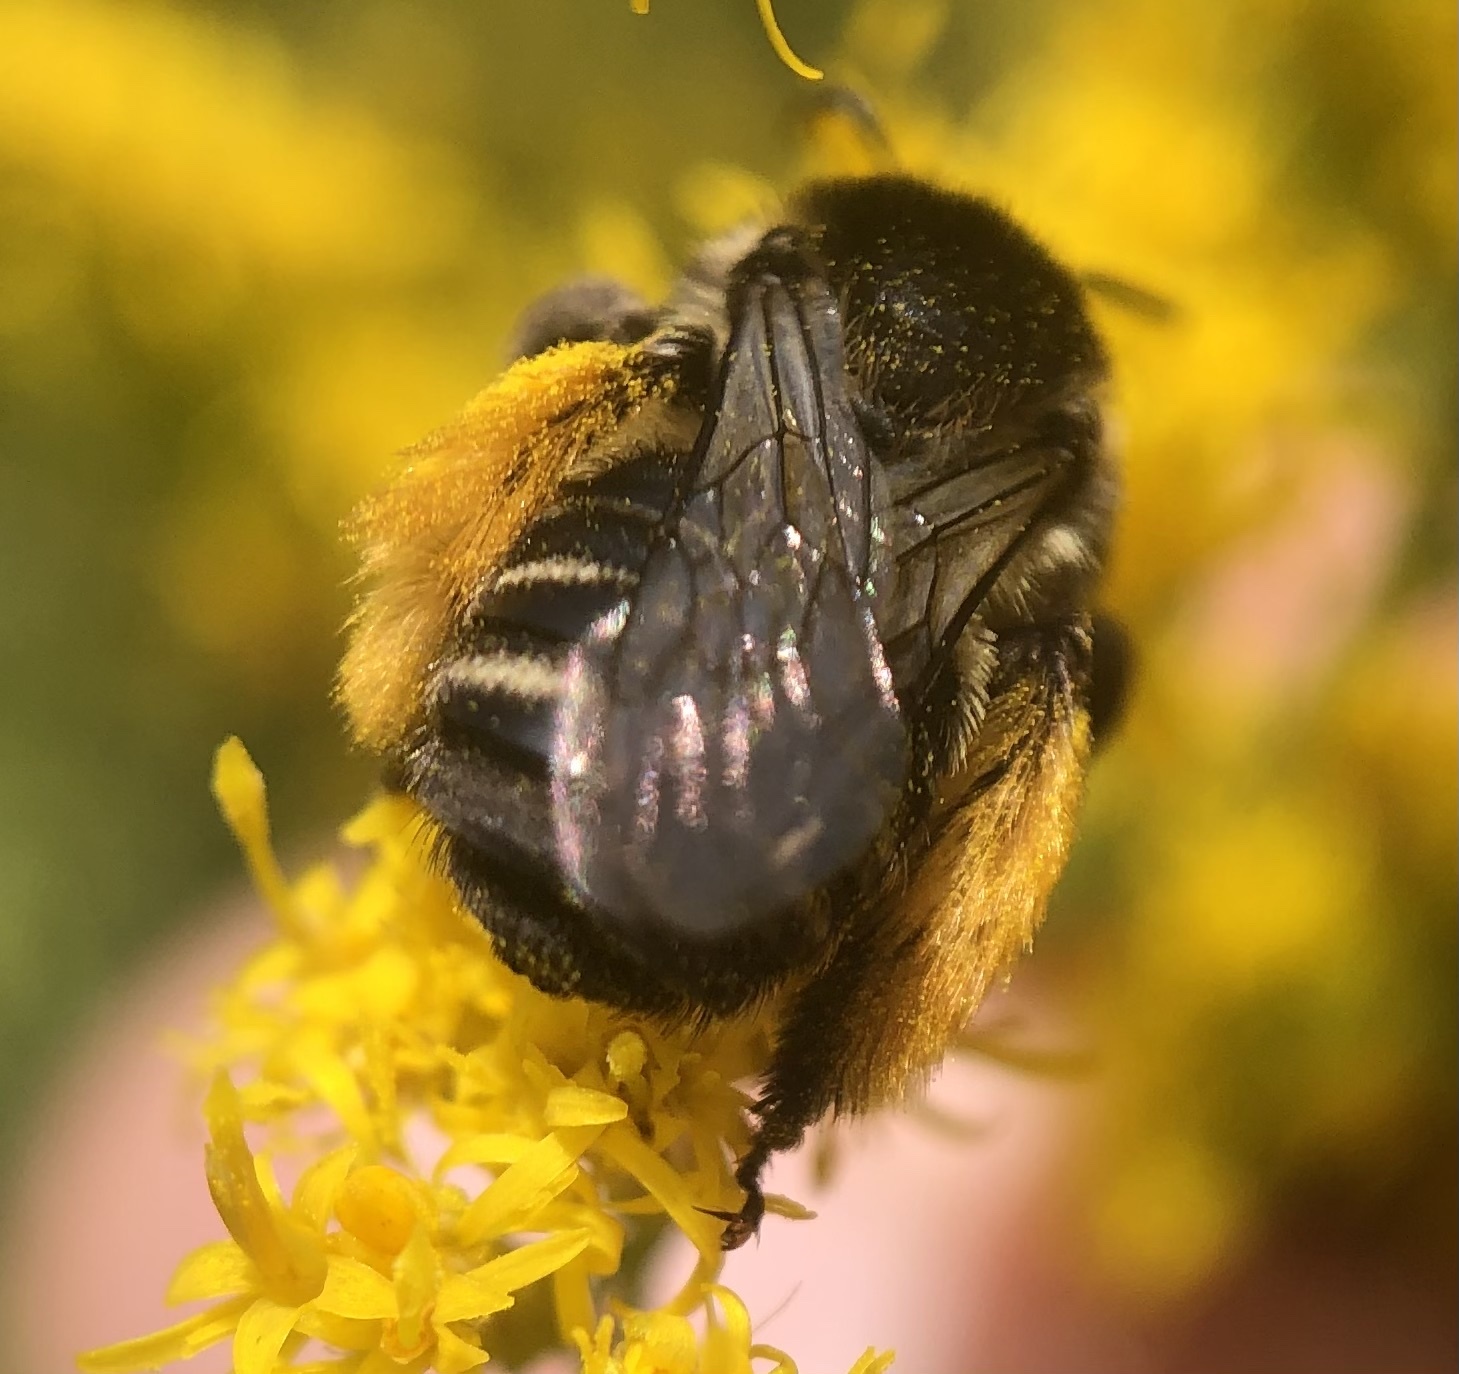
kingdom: Animalia
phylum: Arthropoda
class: Insecta
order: Hymenoptera
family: Apidae
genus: Melissodes
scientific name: Melissodes druriellus
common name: Drury's long-horned bee
